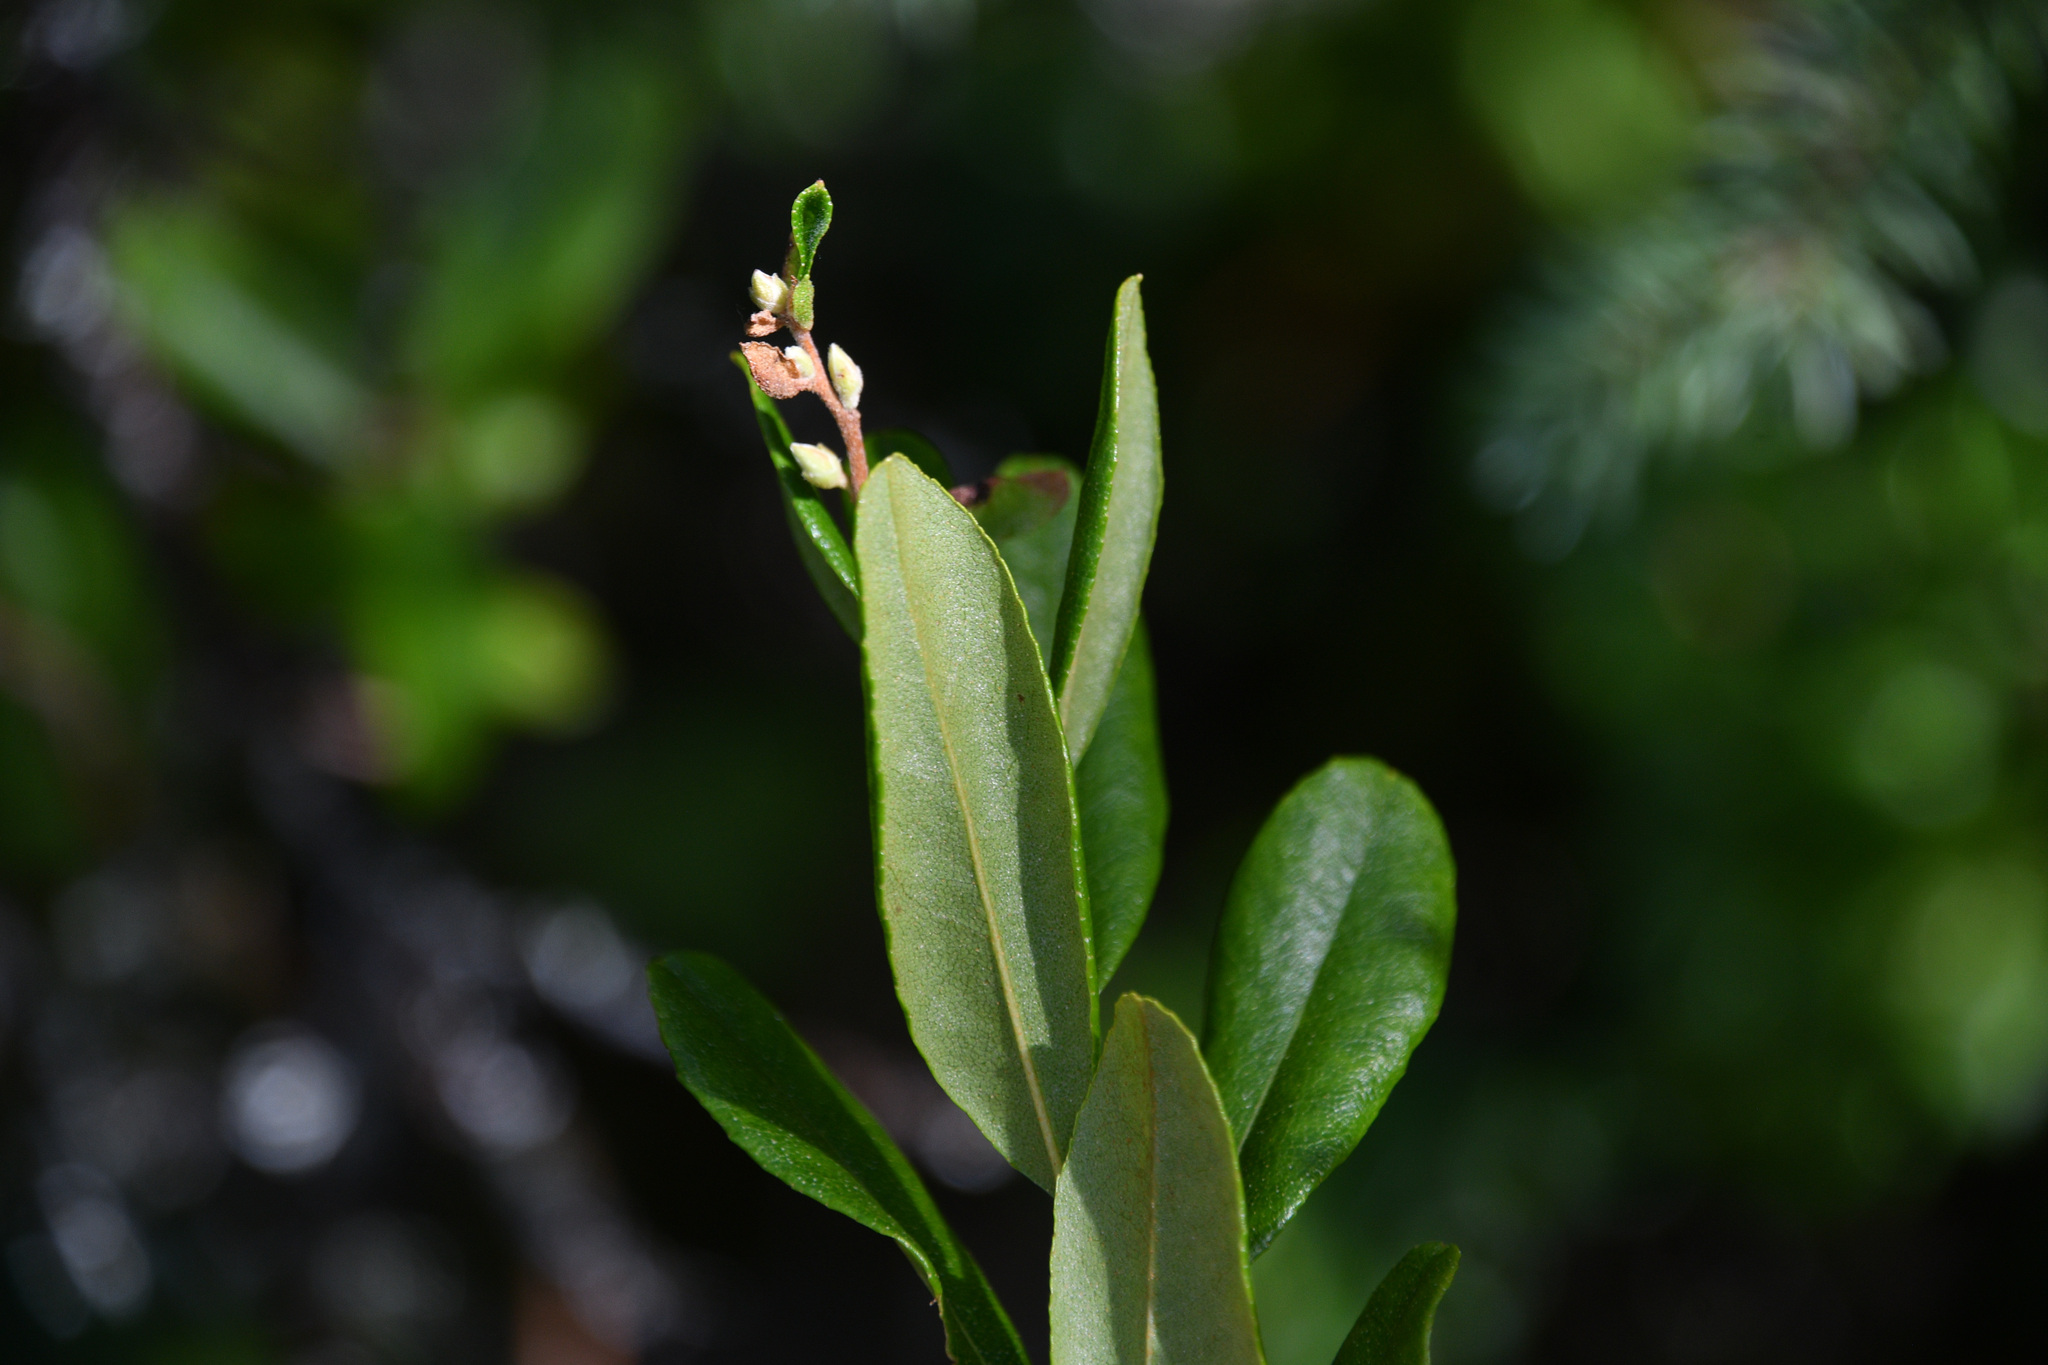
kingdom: Plantae
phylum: Tracheophyta
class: Magnoliopsida
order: Ericales
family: Ericaceae
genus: Chamaedaphne
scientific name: Chamaedaphne calyculata
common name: Leatherleaf
